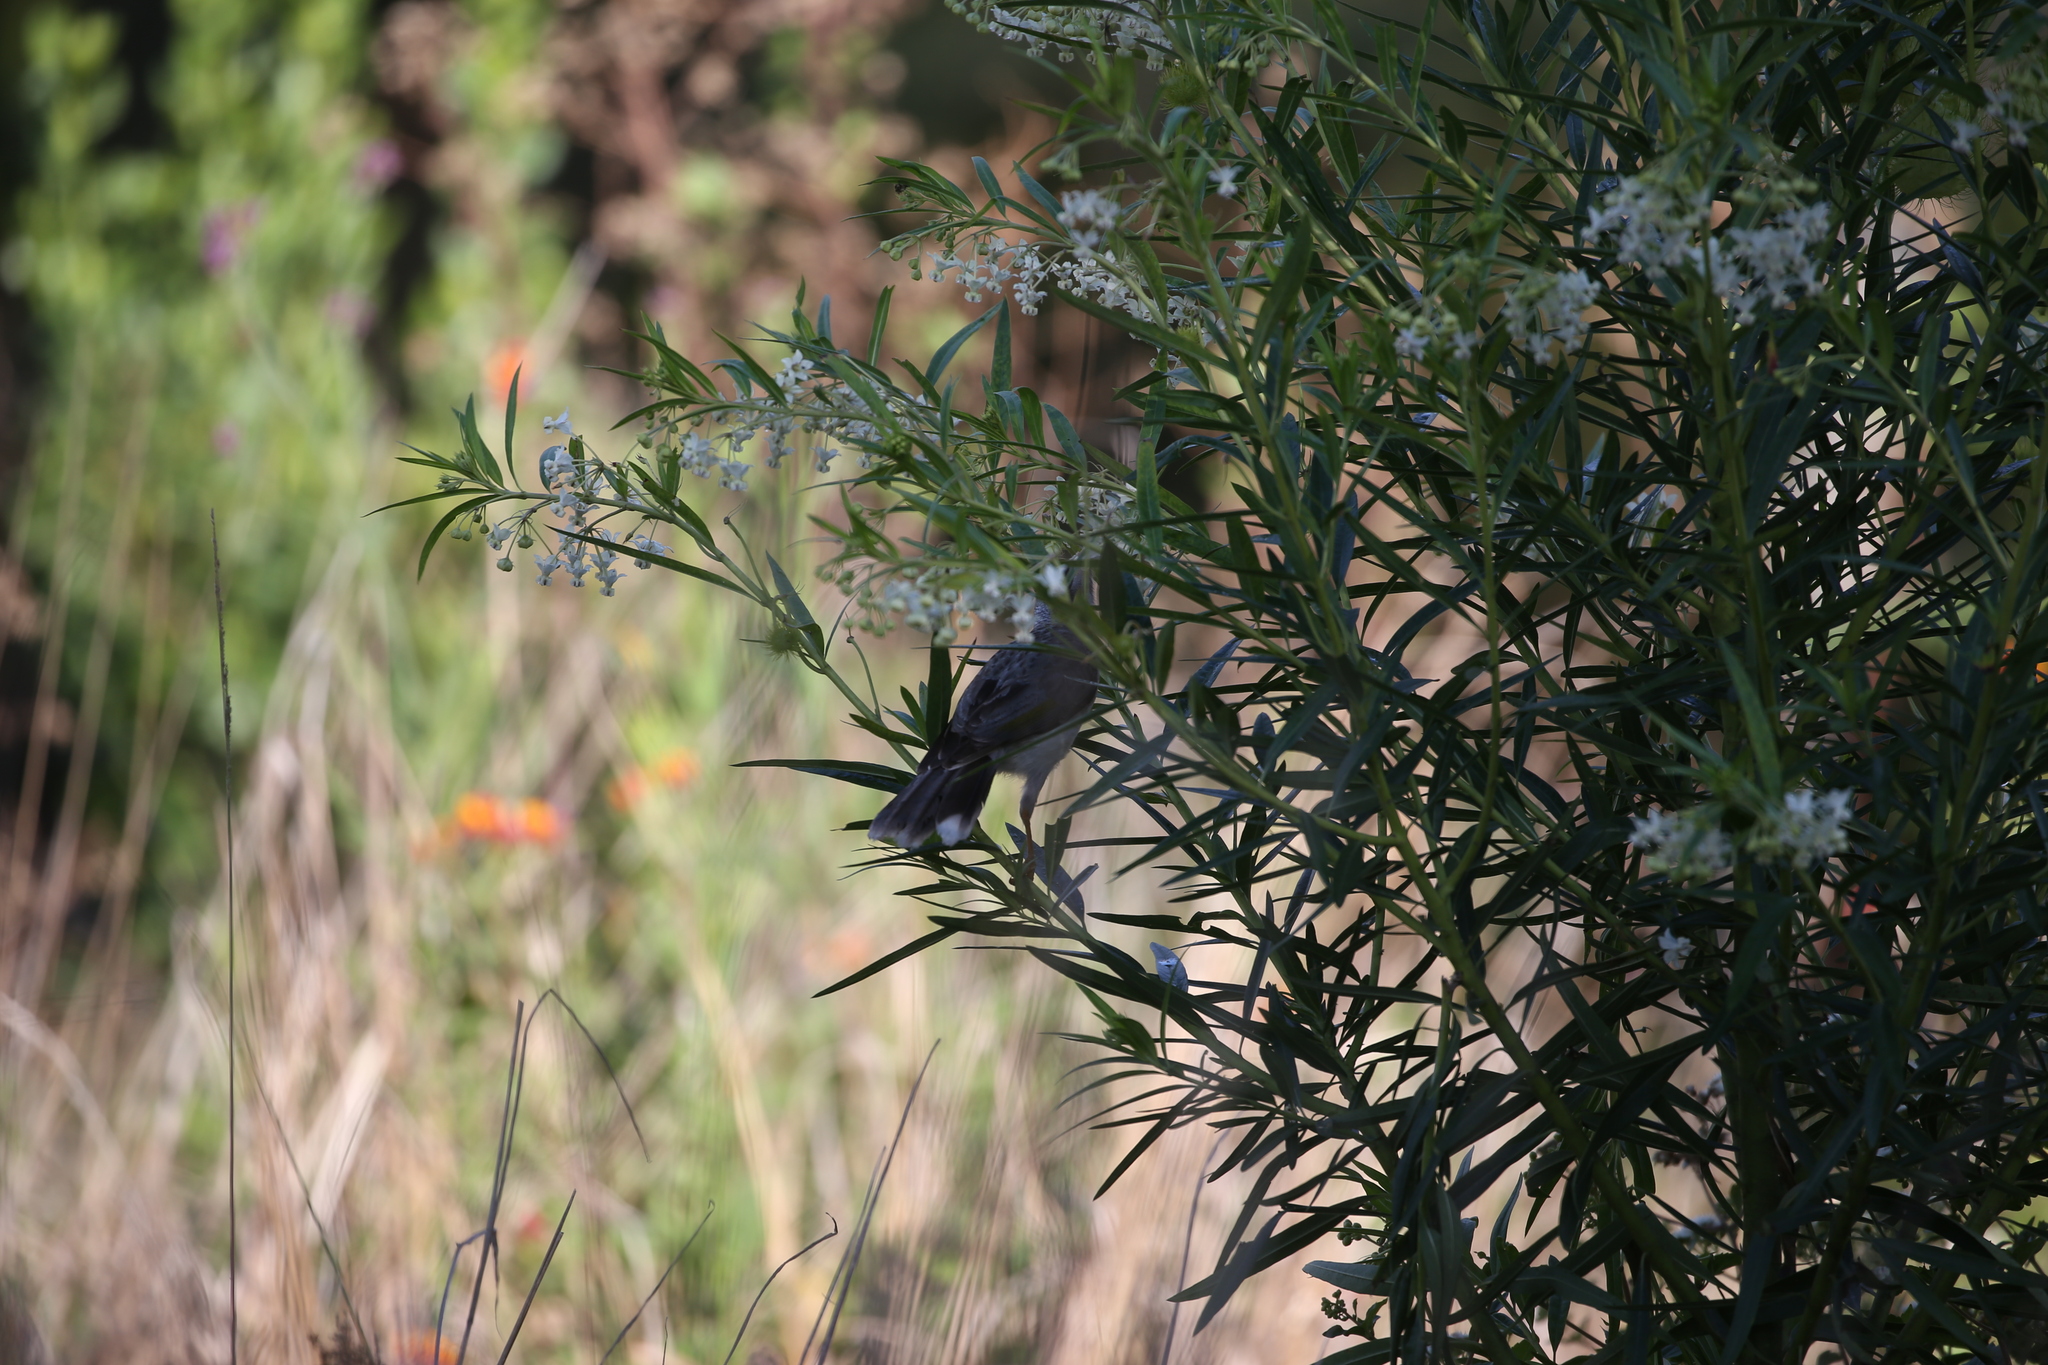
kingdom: Animalia
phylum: Chordata
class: Aves
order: Passeriformes
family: Meliphagidae
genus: Manorina
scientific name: Manorina melanocephala
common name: Noisy miner
